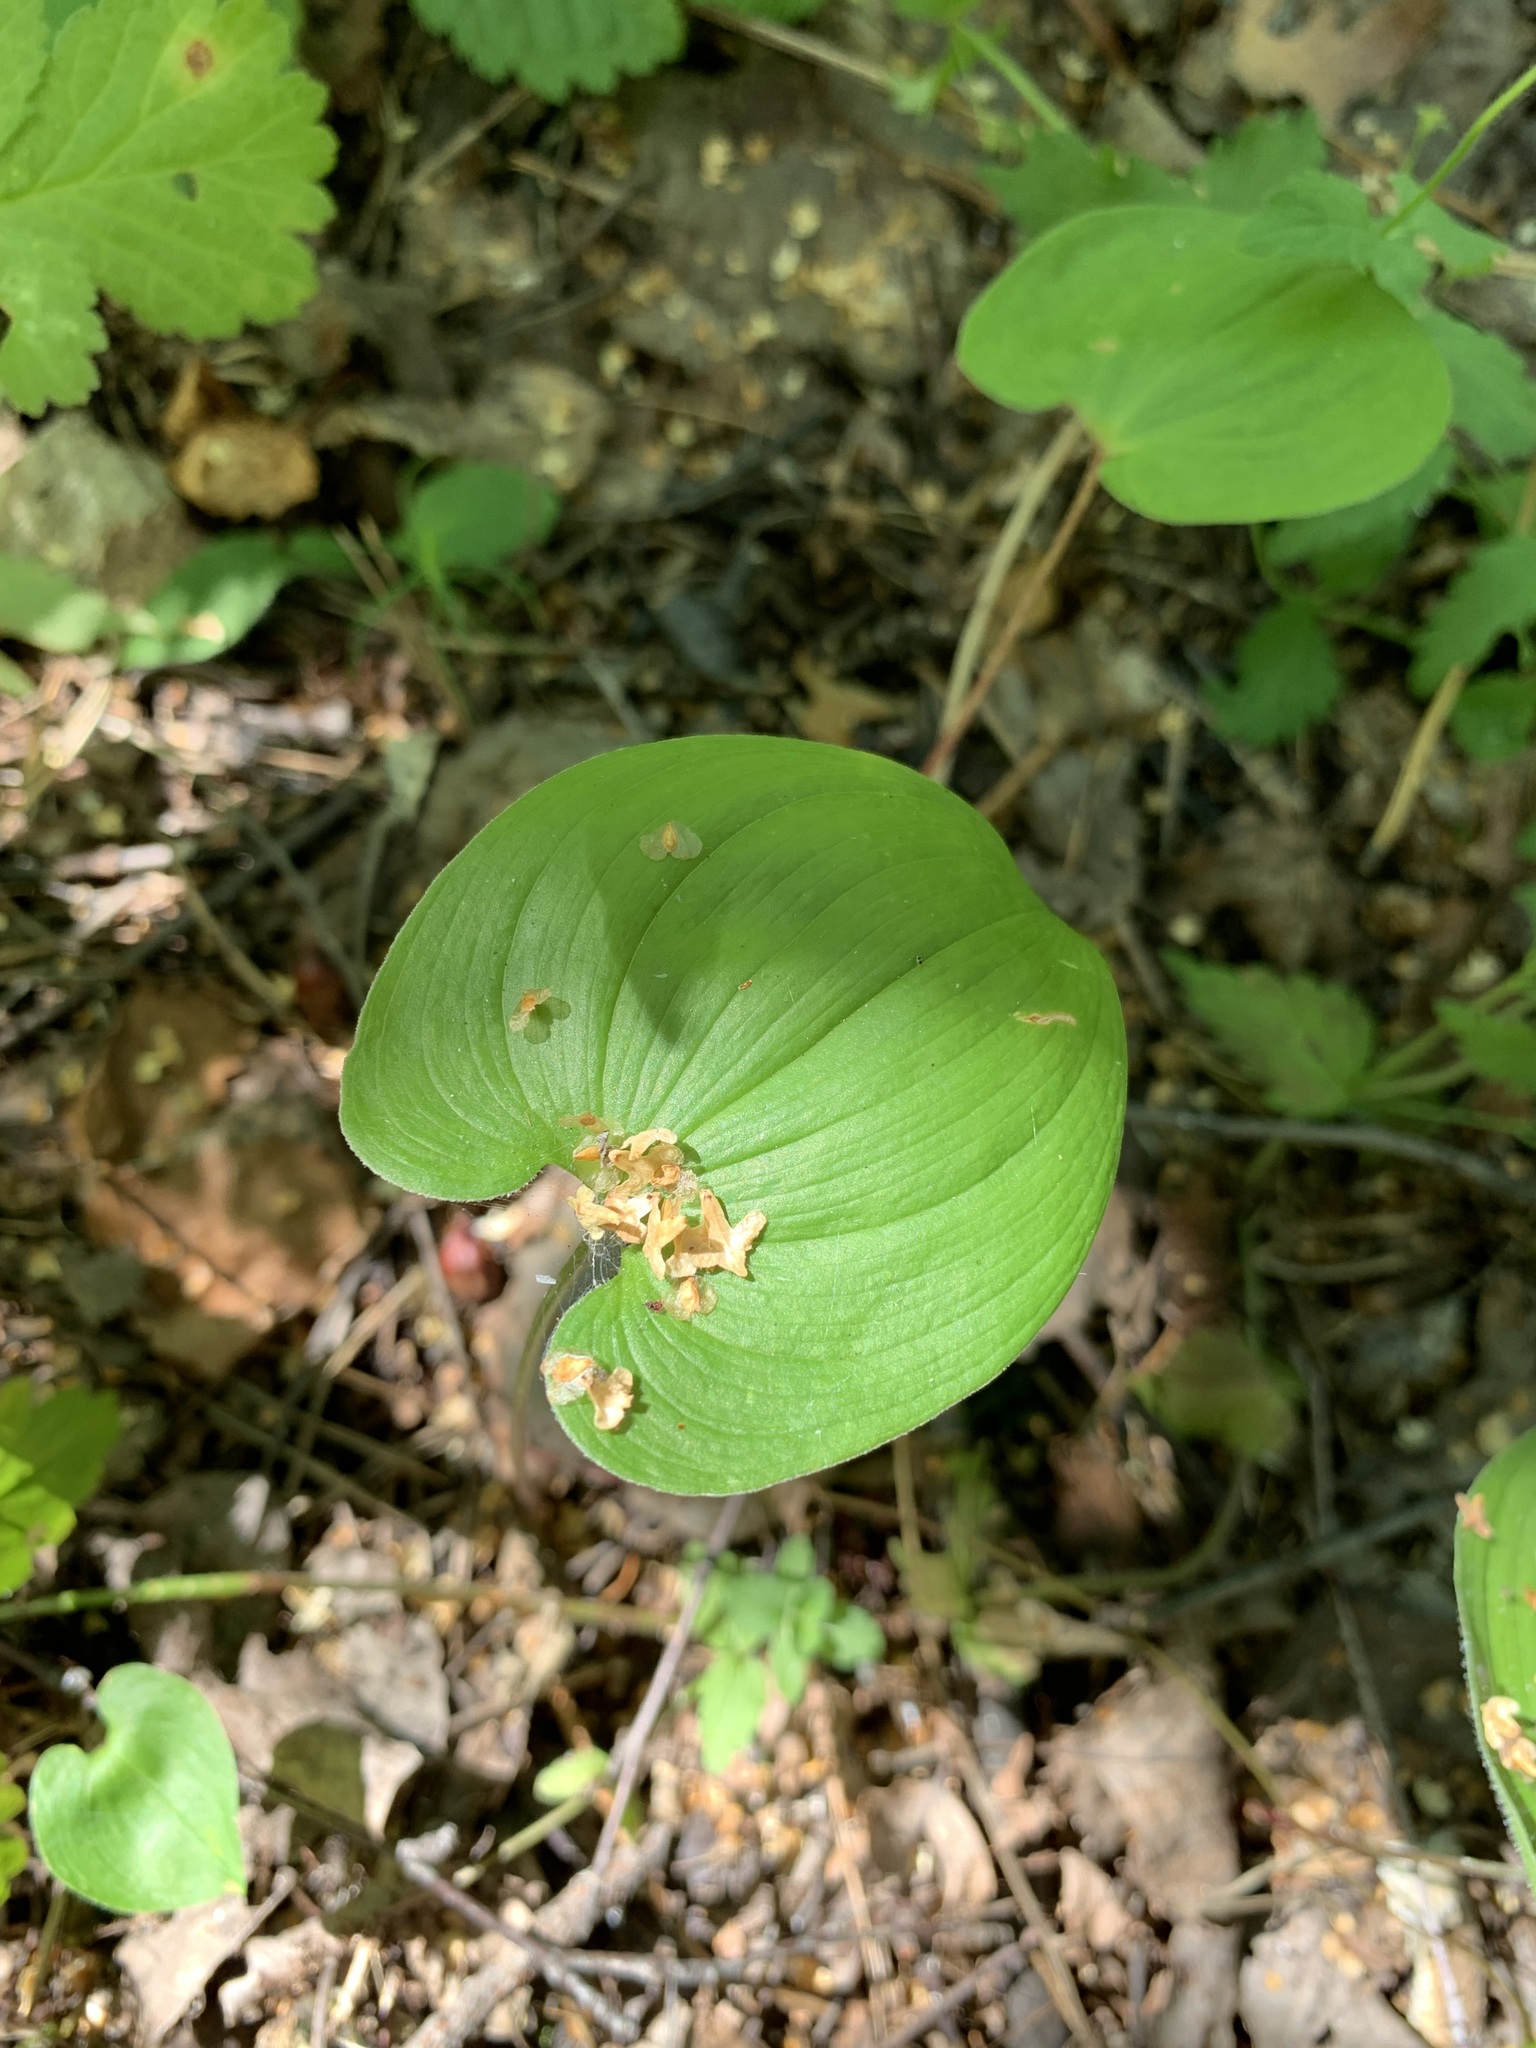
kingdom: Plantae
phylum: Tracheophyta
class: Liliopsida
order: Asparagales
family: Asparagaceae
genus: Maianthemum
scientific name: Maianthemum bifolium
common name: May lily
